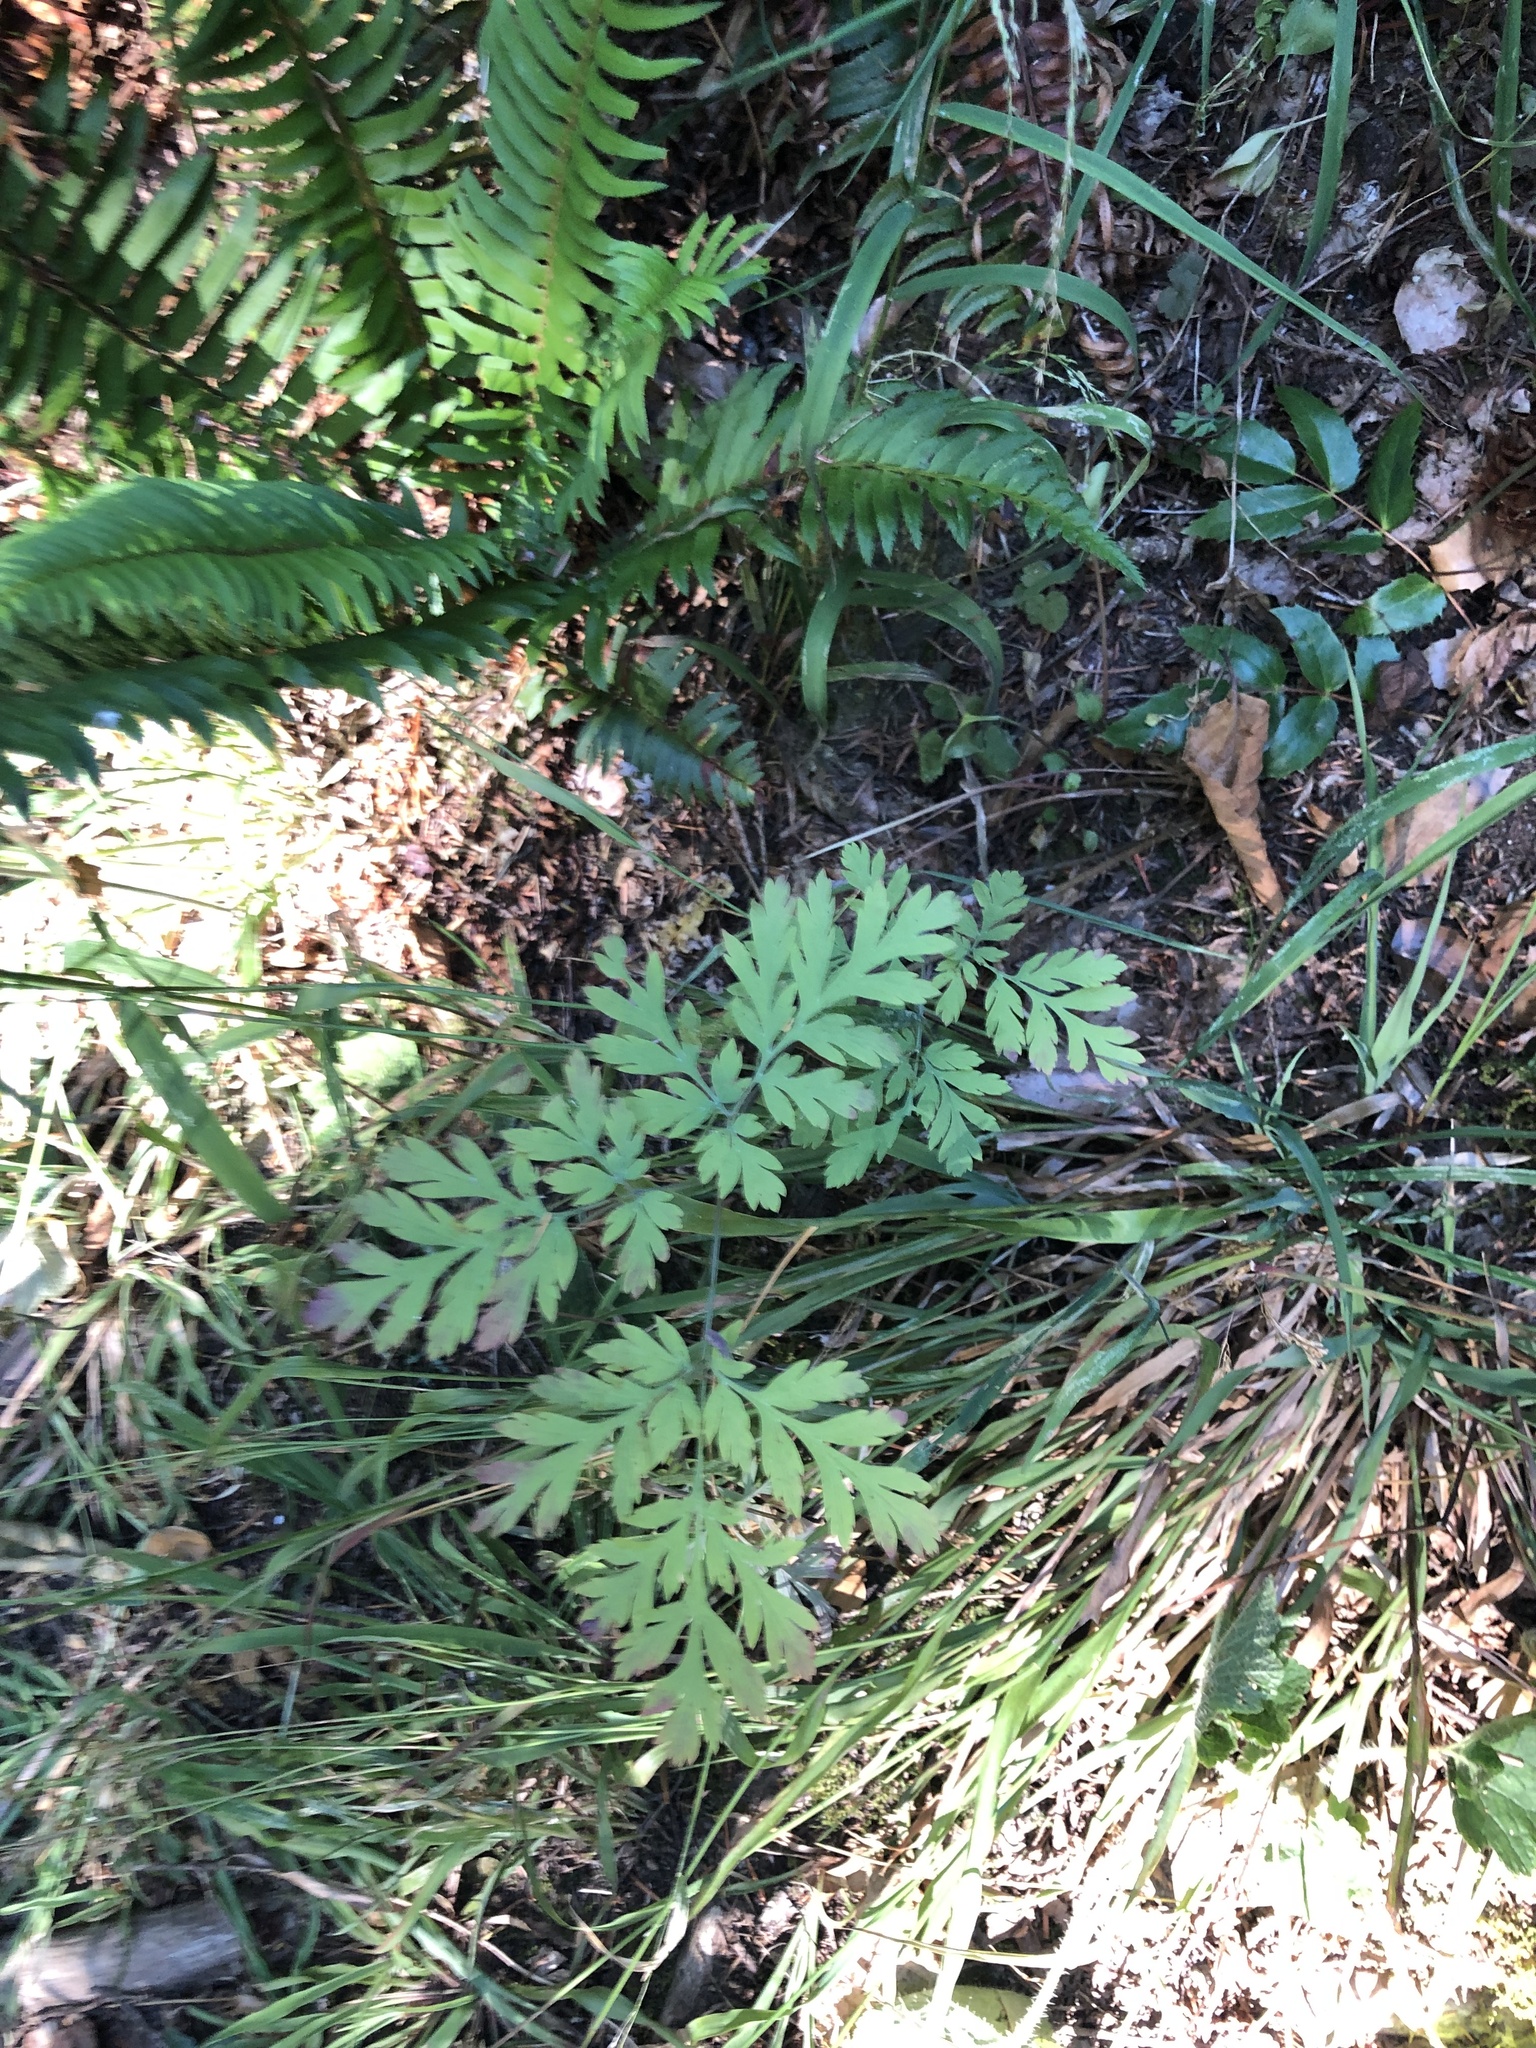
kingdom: Plantae
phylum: Tracheophyta
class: Magnoliopsida
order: Ranunculales
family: Papaveraceae
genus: Dicentra
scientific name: Dicentra formosa
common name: Bleeding-heart
